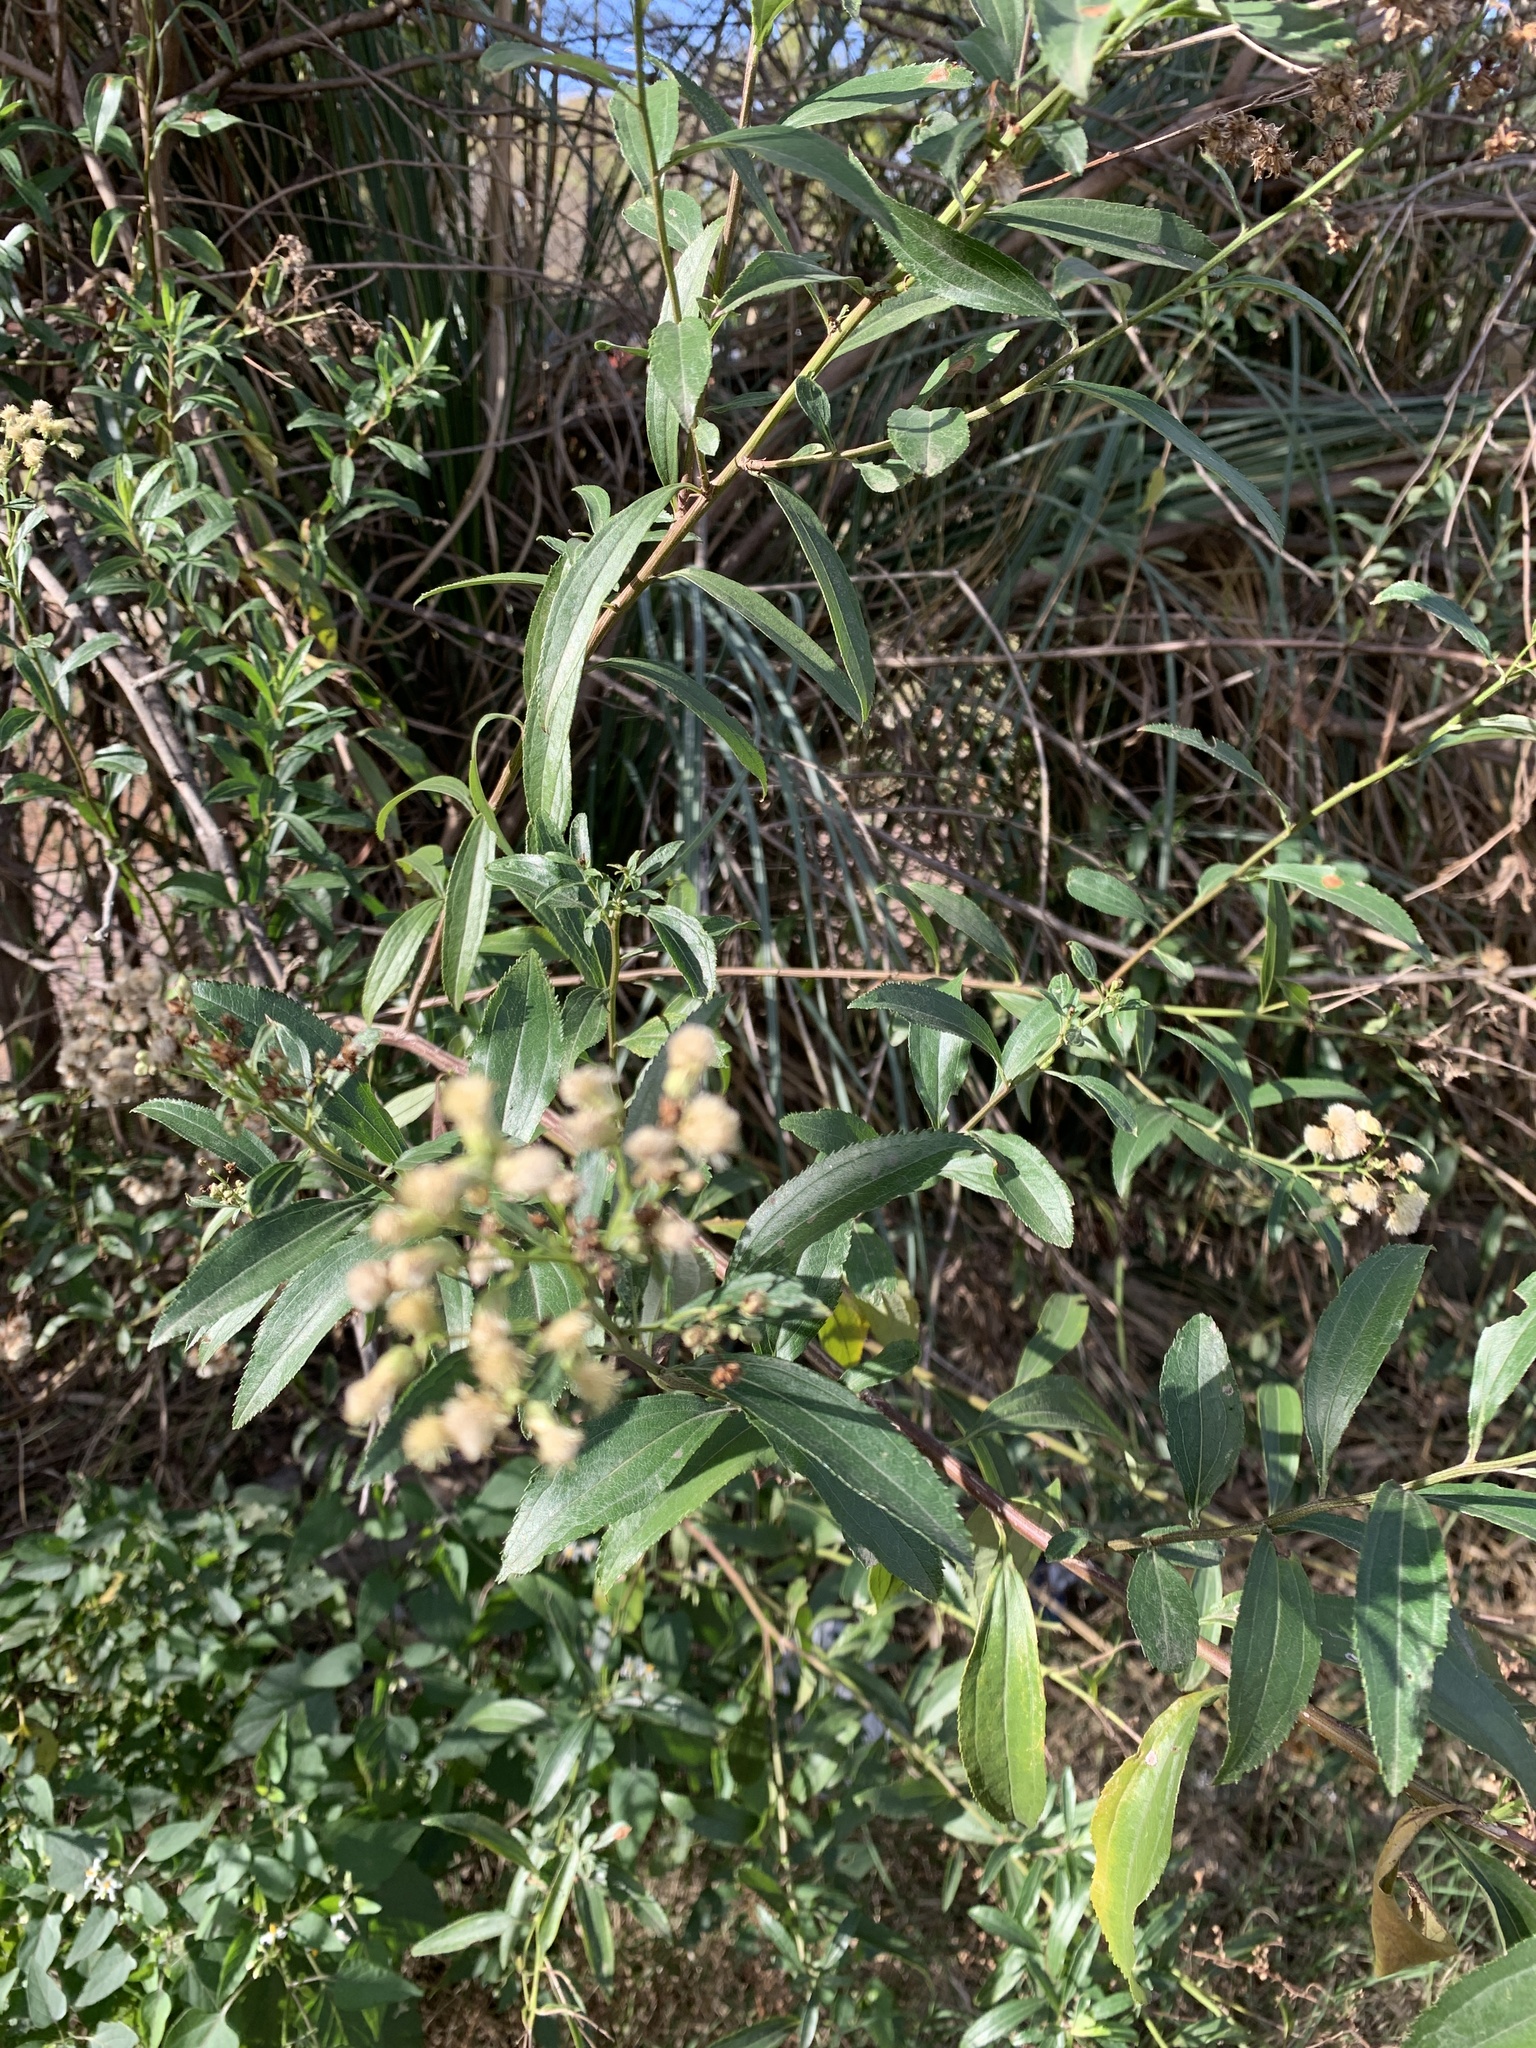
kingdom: Plantae
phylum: Tracheophyta
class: Magnoliopsida
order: Asterales
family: Asteraceae
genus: Baccharis
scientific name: Baccharis punctulata
